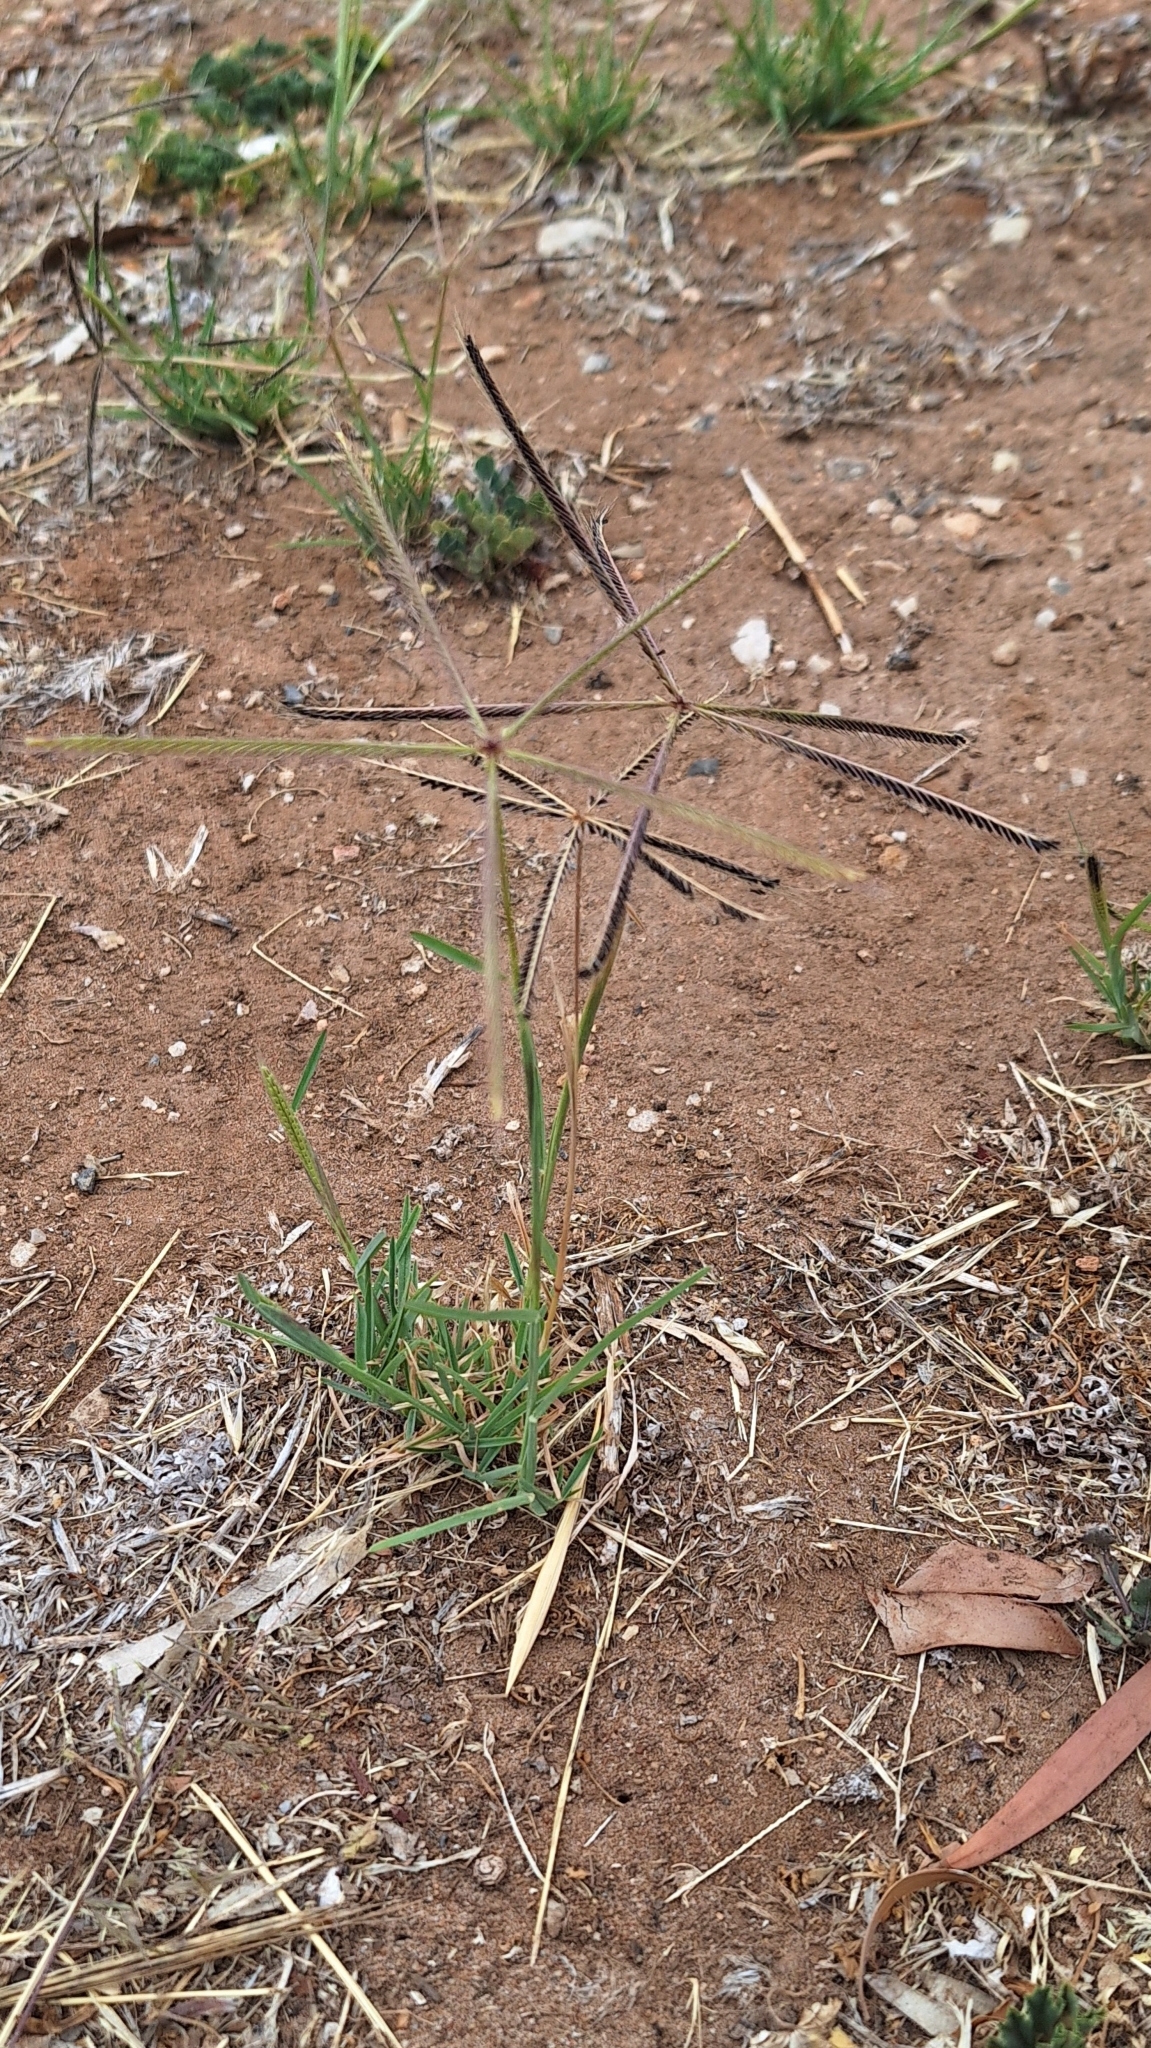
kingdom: Plantae
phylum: Tracheophyta
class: Liliopsida
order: Poales
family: Poaceae
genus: Chloris
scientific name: Chloris truncata
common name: Windmill-grass
